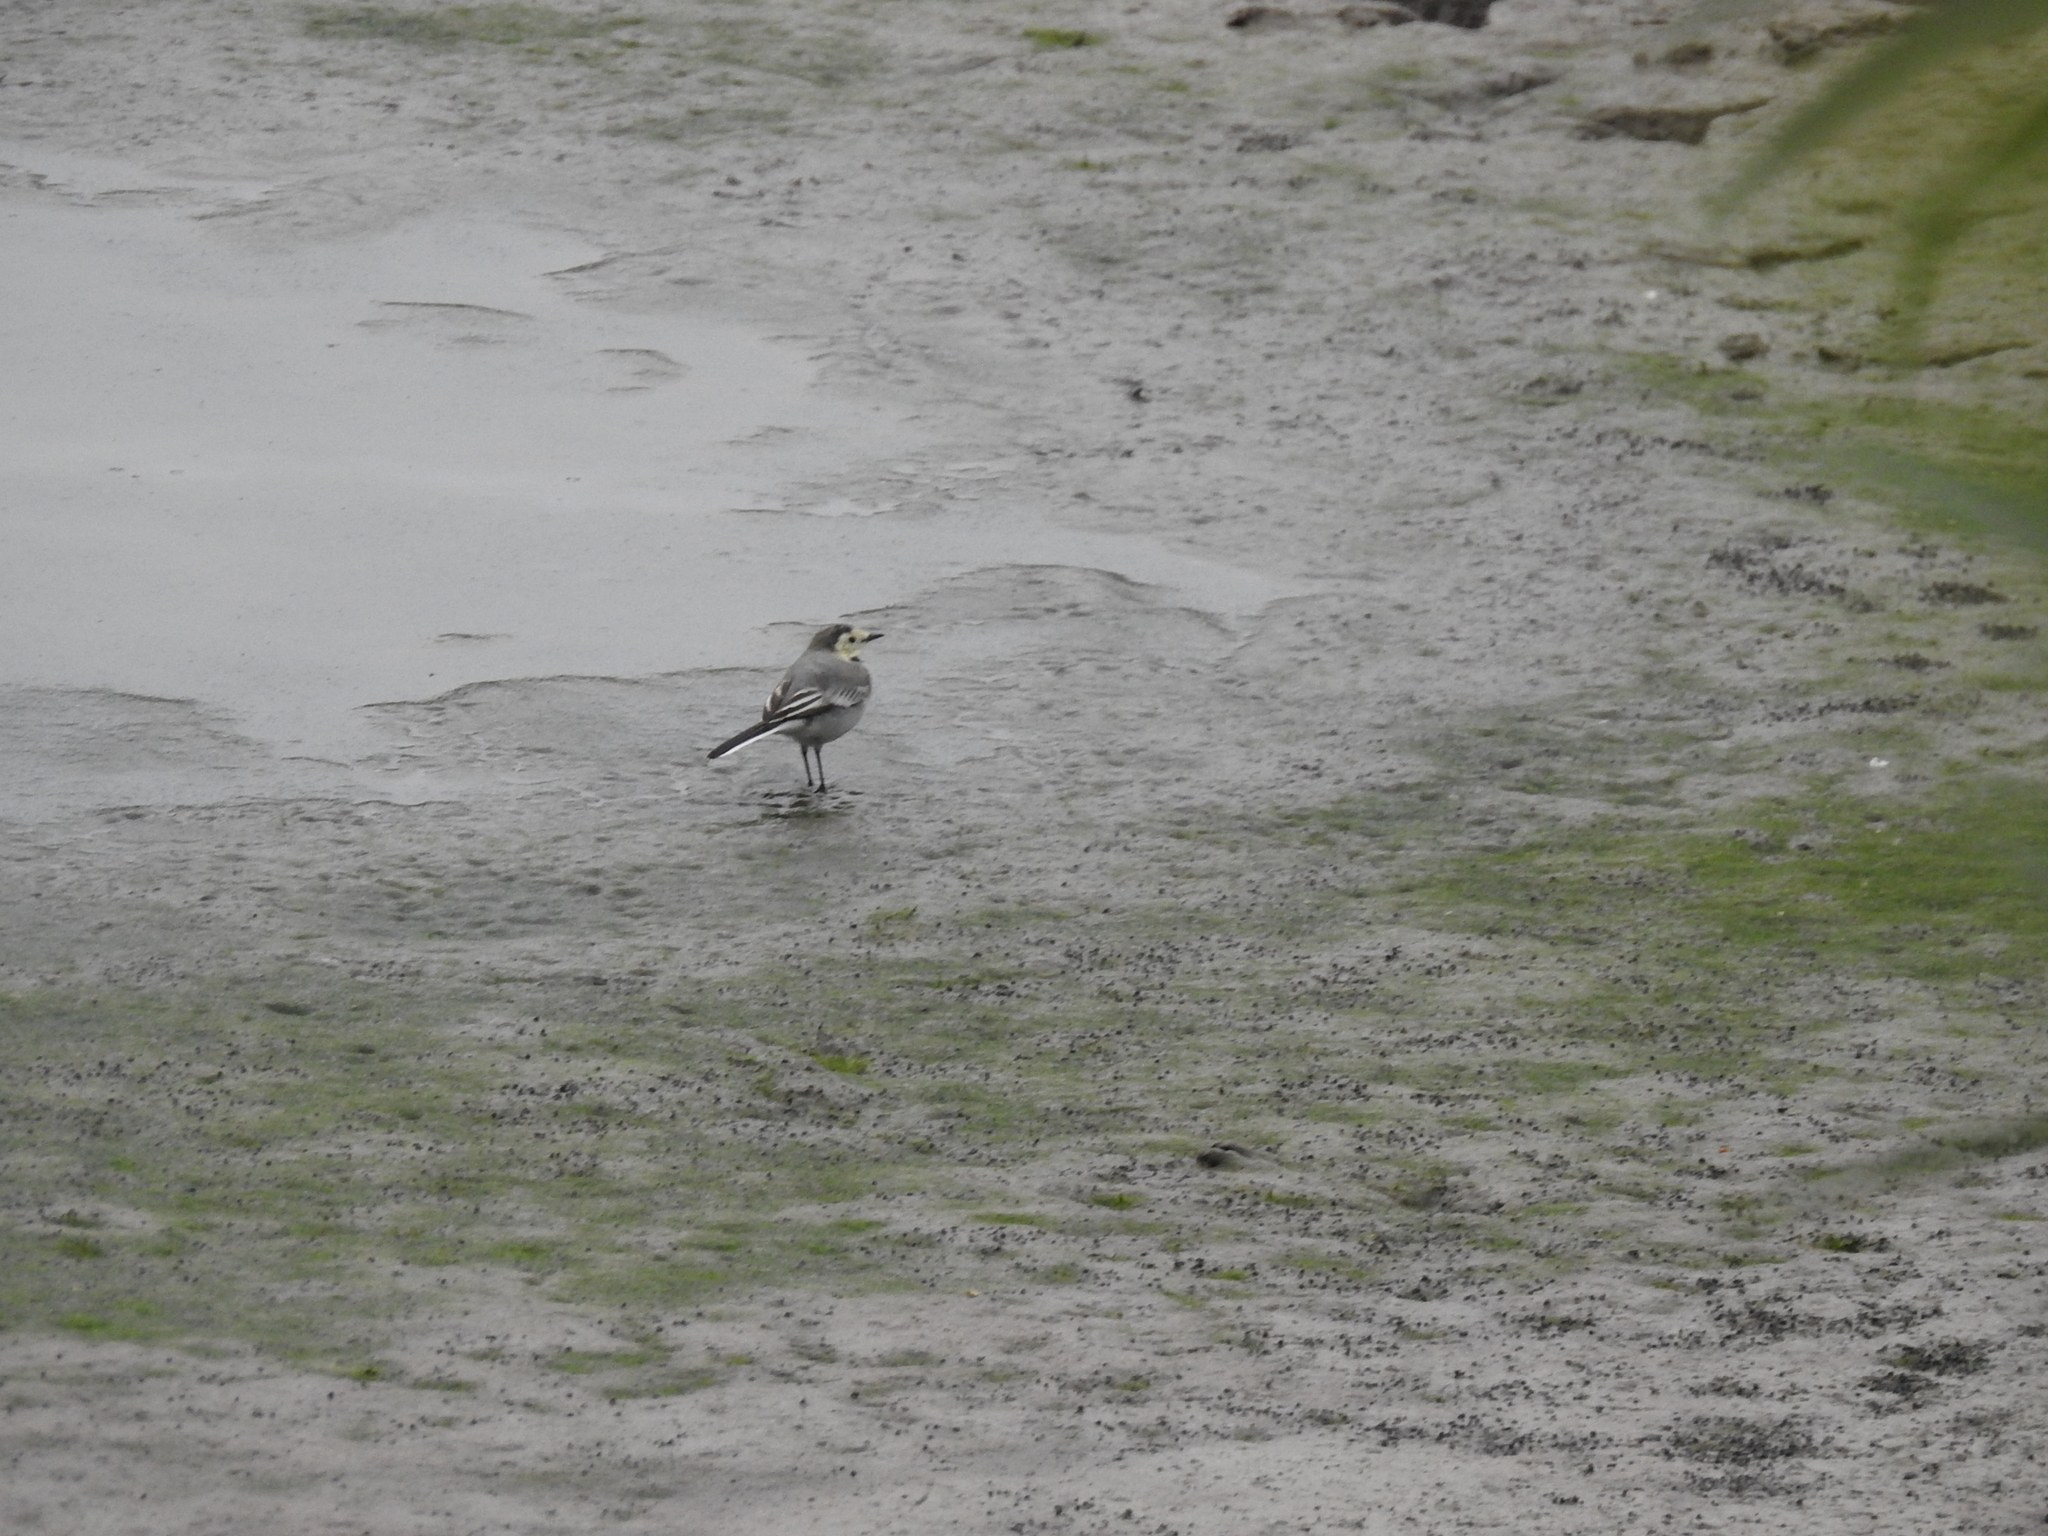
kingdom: Animalia
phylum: Chordata
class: Aves
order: Passeriformes
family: Motacillidae
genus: Motacilla
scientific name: Motacilla alba
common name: White wagtail
